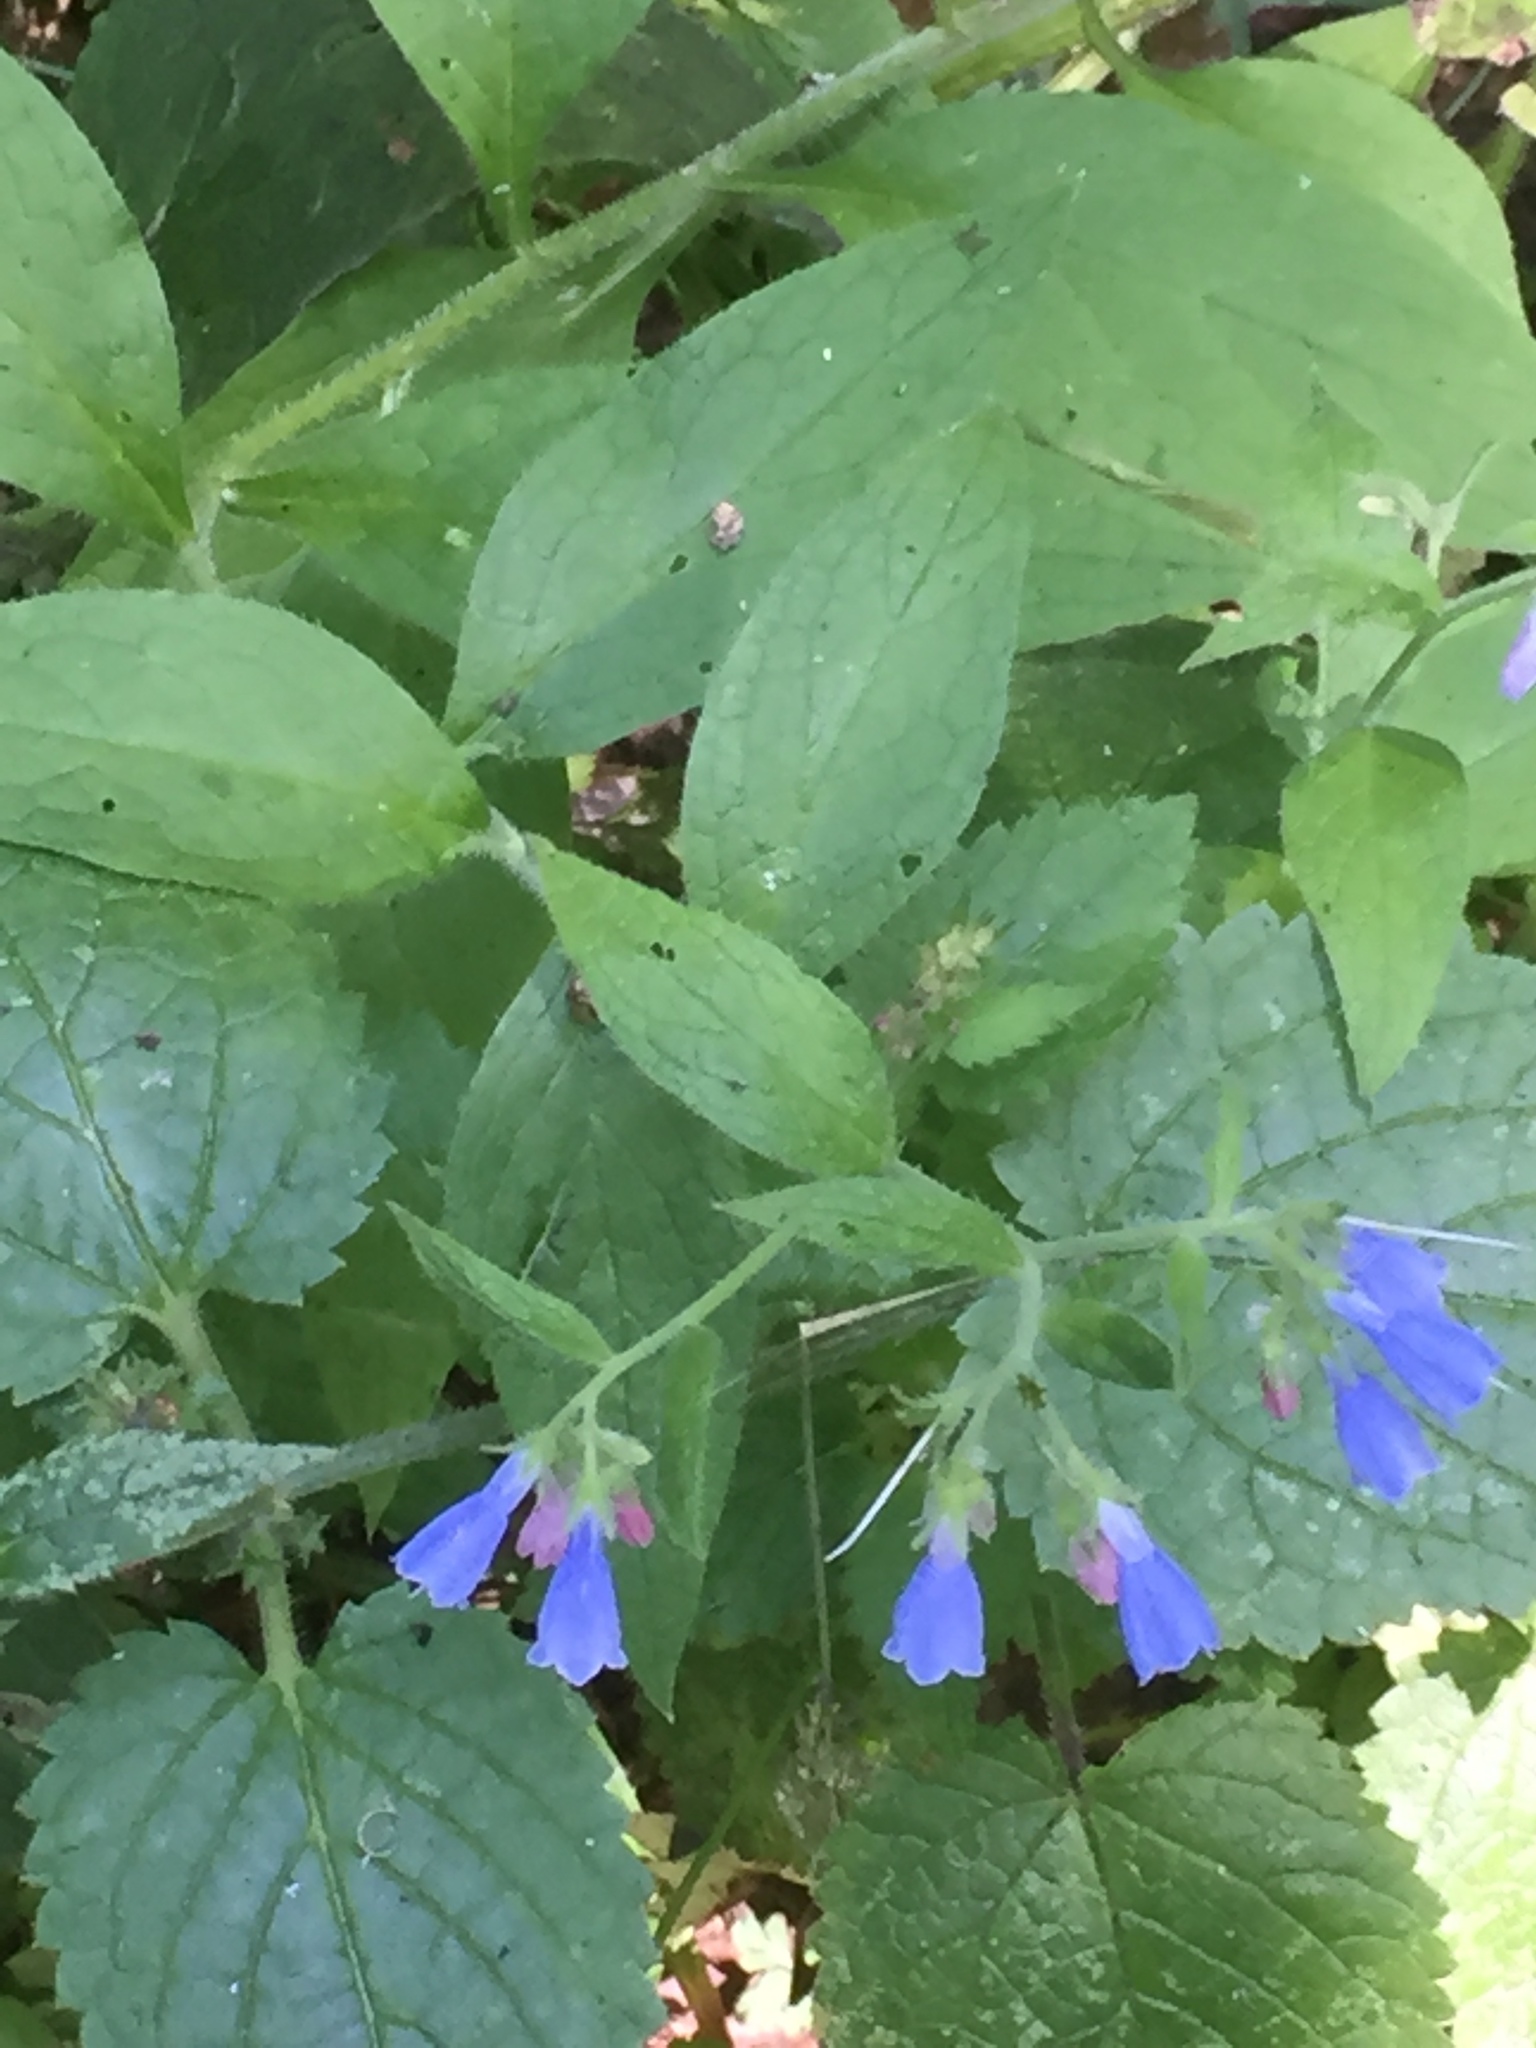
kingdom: Plantae
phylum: Tracheophyta
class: Magnoliopsida
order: Boraginales
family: Boraginaceae
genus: Symphytum
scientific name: Symphytum caucasicum
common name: Caucasian comfrey
